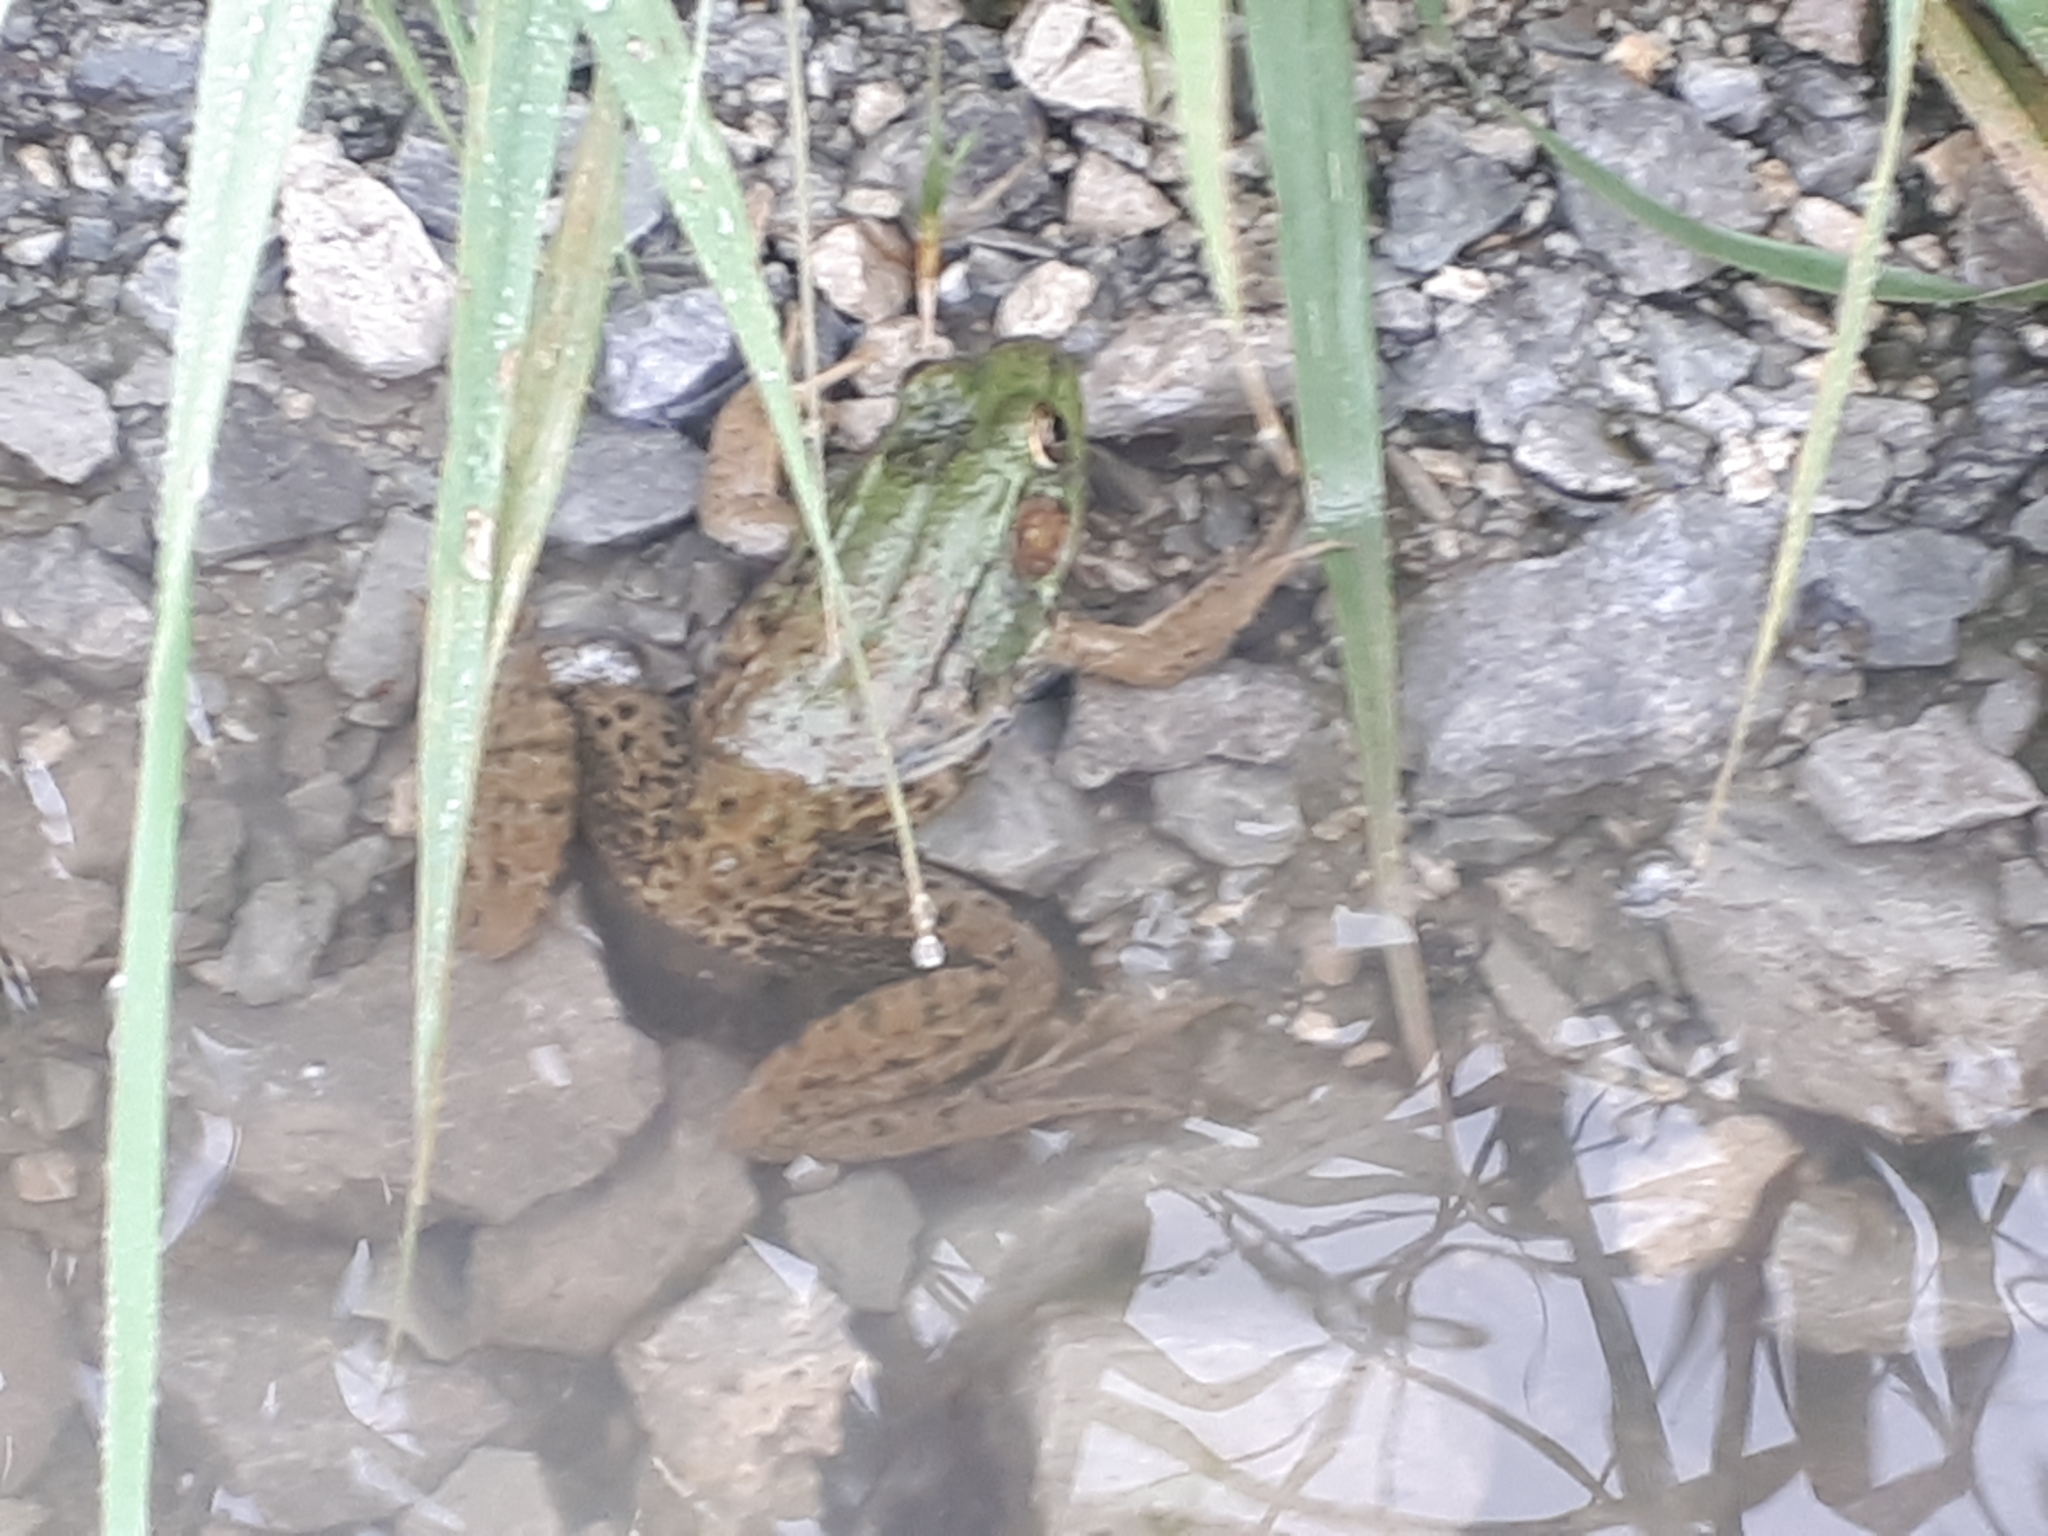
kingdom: Animalia
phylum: Chordata
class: Amphibia
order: Anura
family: Ranidae
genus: Lithobates
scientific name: Lithobates clamitans
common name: Green frog
